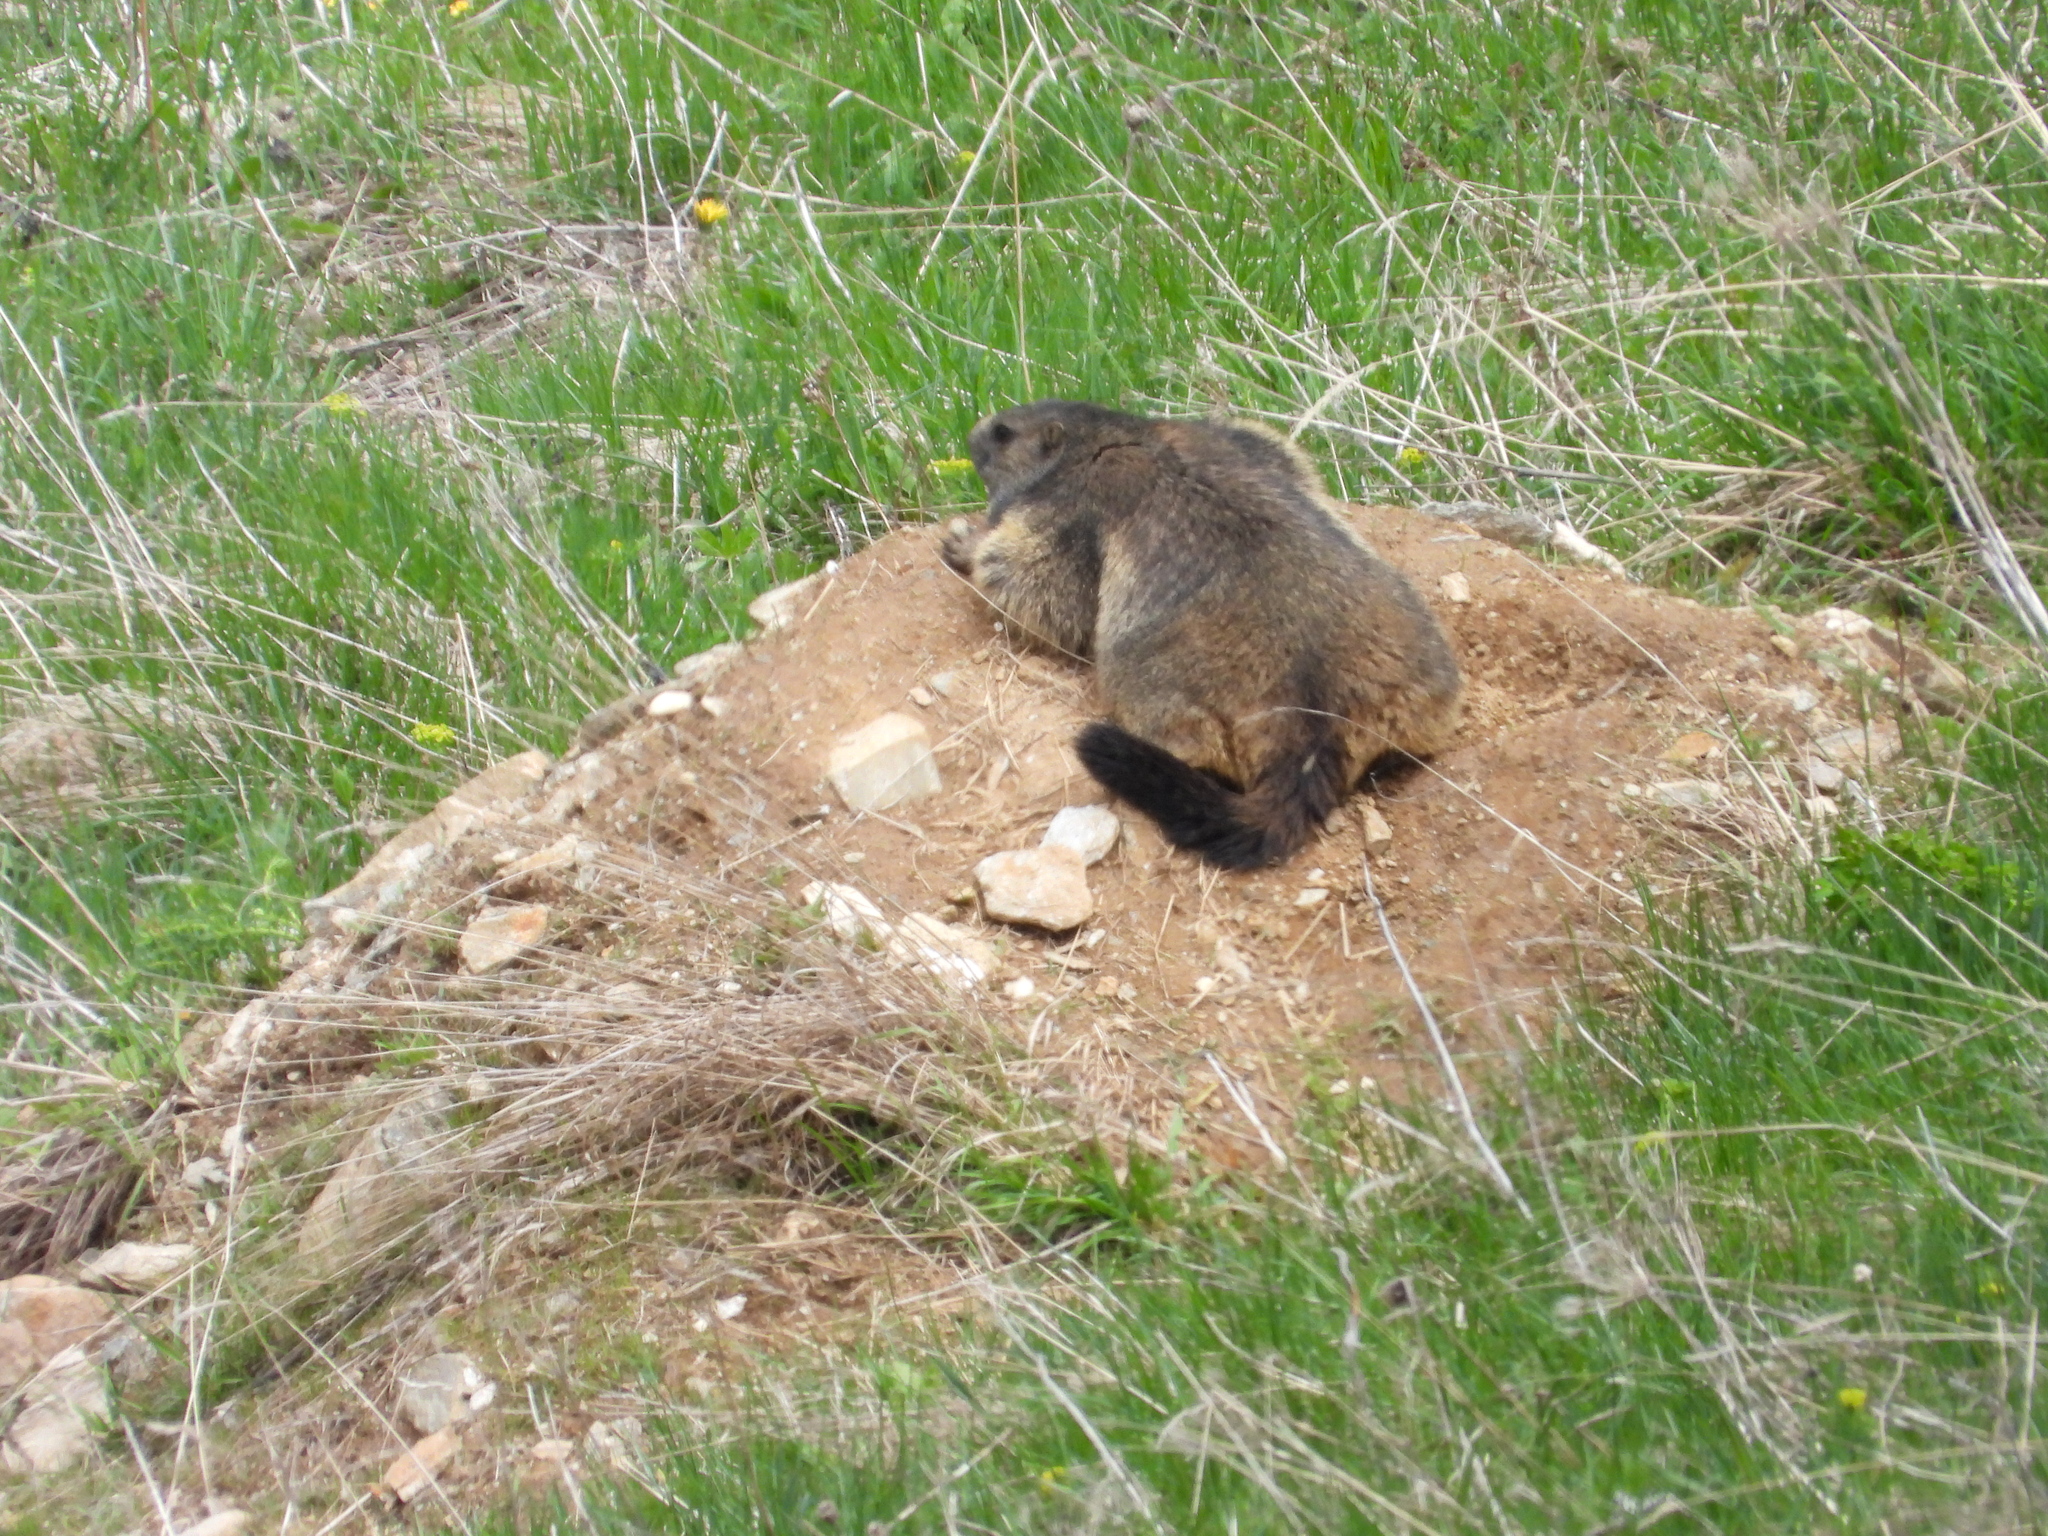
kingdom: Animalia
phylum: Chordata
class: Mammalia
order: Rodentia
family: Sciuridae
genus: Marmota
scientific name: Marmota marmota
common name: Alpine marmot
